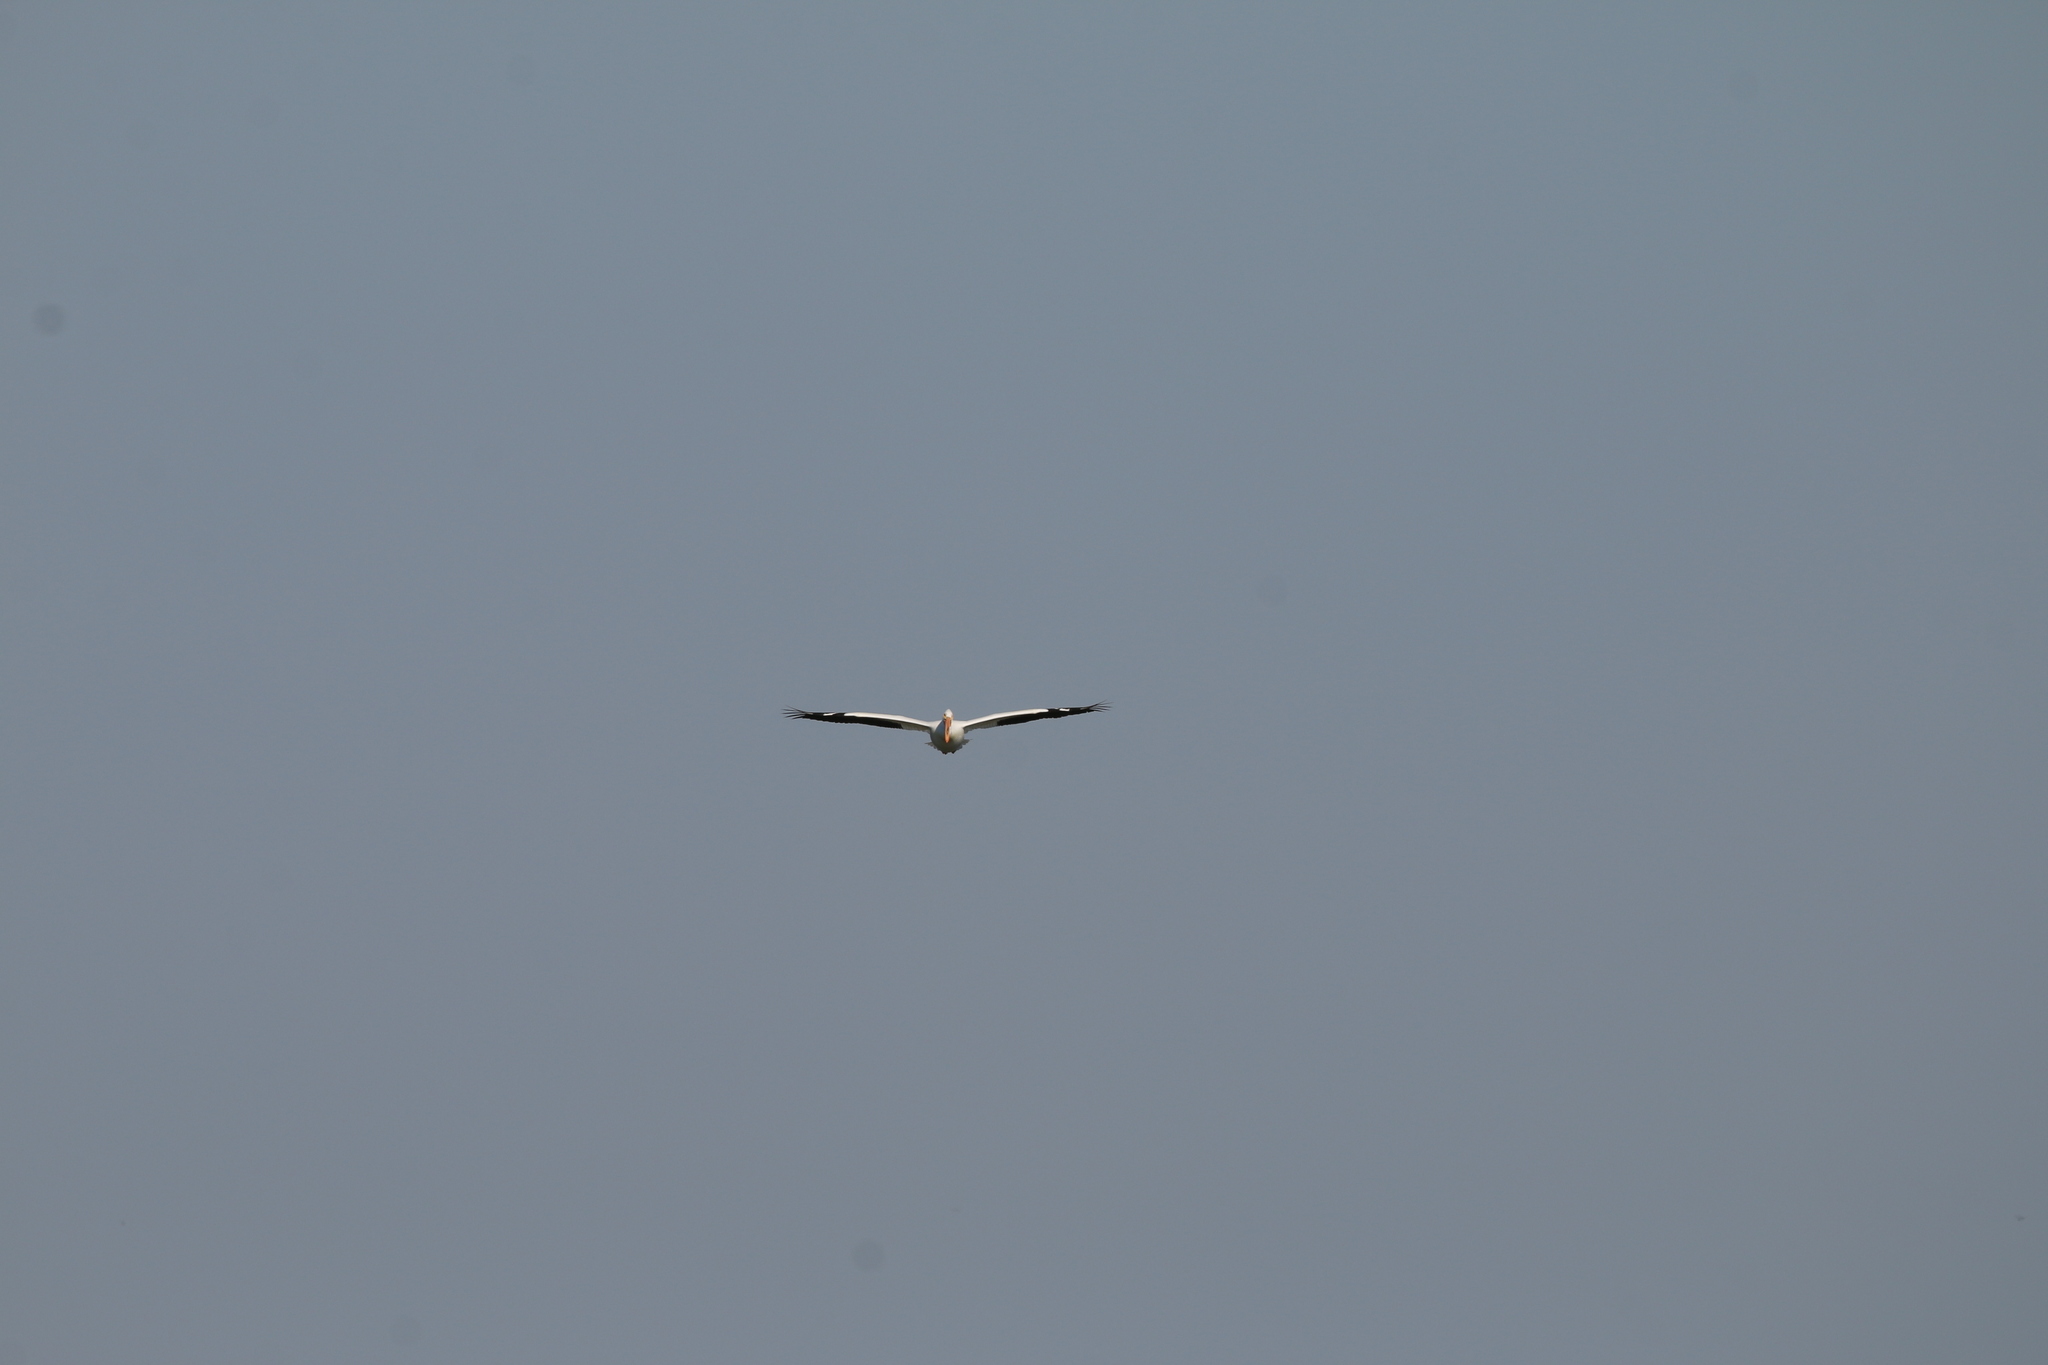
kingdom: Animalia
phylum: Chordata
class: Aves
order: Pelecaniformes
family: Pelecanidae
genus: Pelecanus
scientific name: Pelecanus erythrorhynchos
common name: American white pelican
